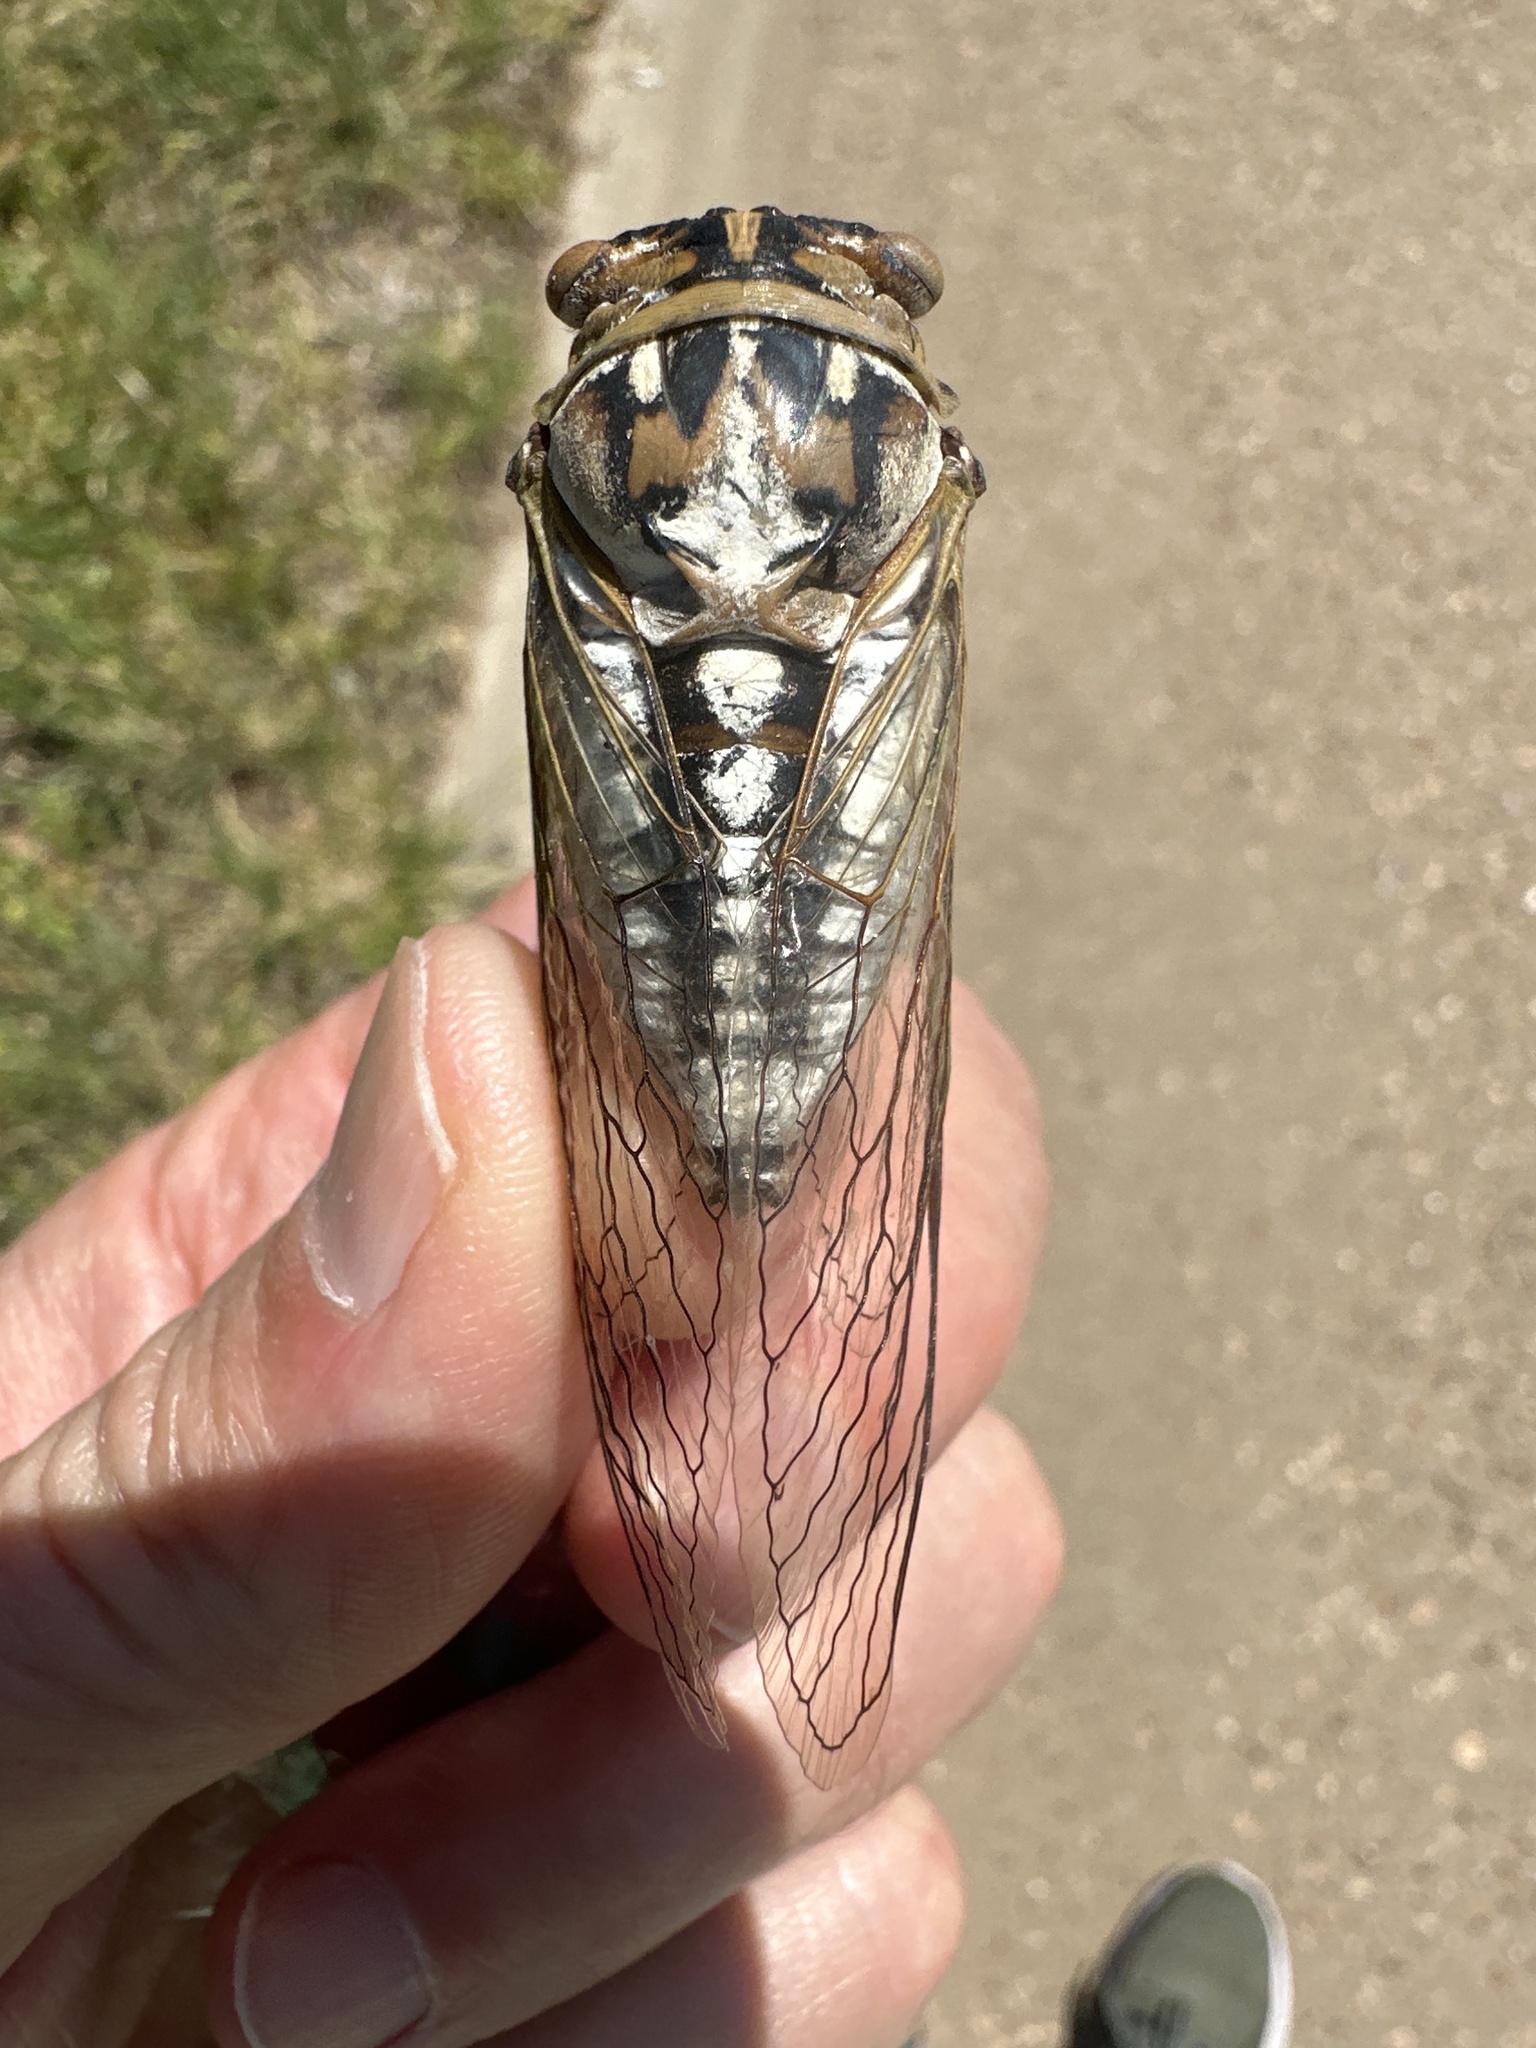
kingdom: Animalia
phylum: Arthropoda
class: Insecta
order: Hemiptera
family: Cicadidae
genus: Megatibicen
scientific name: Megatibicen dealbatus
